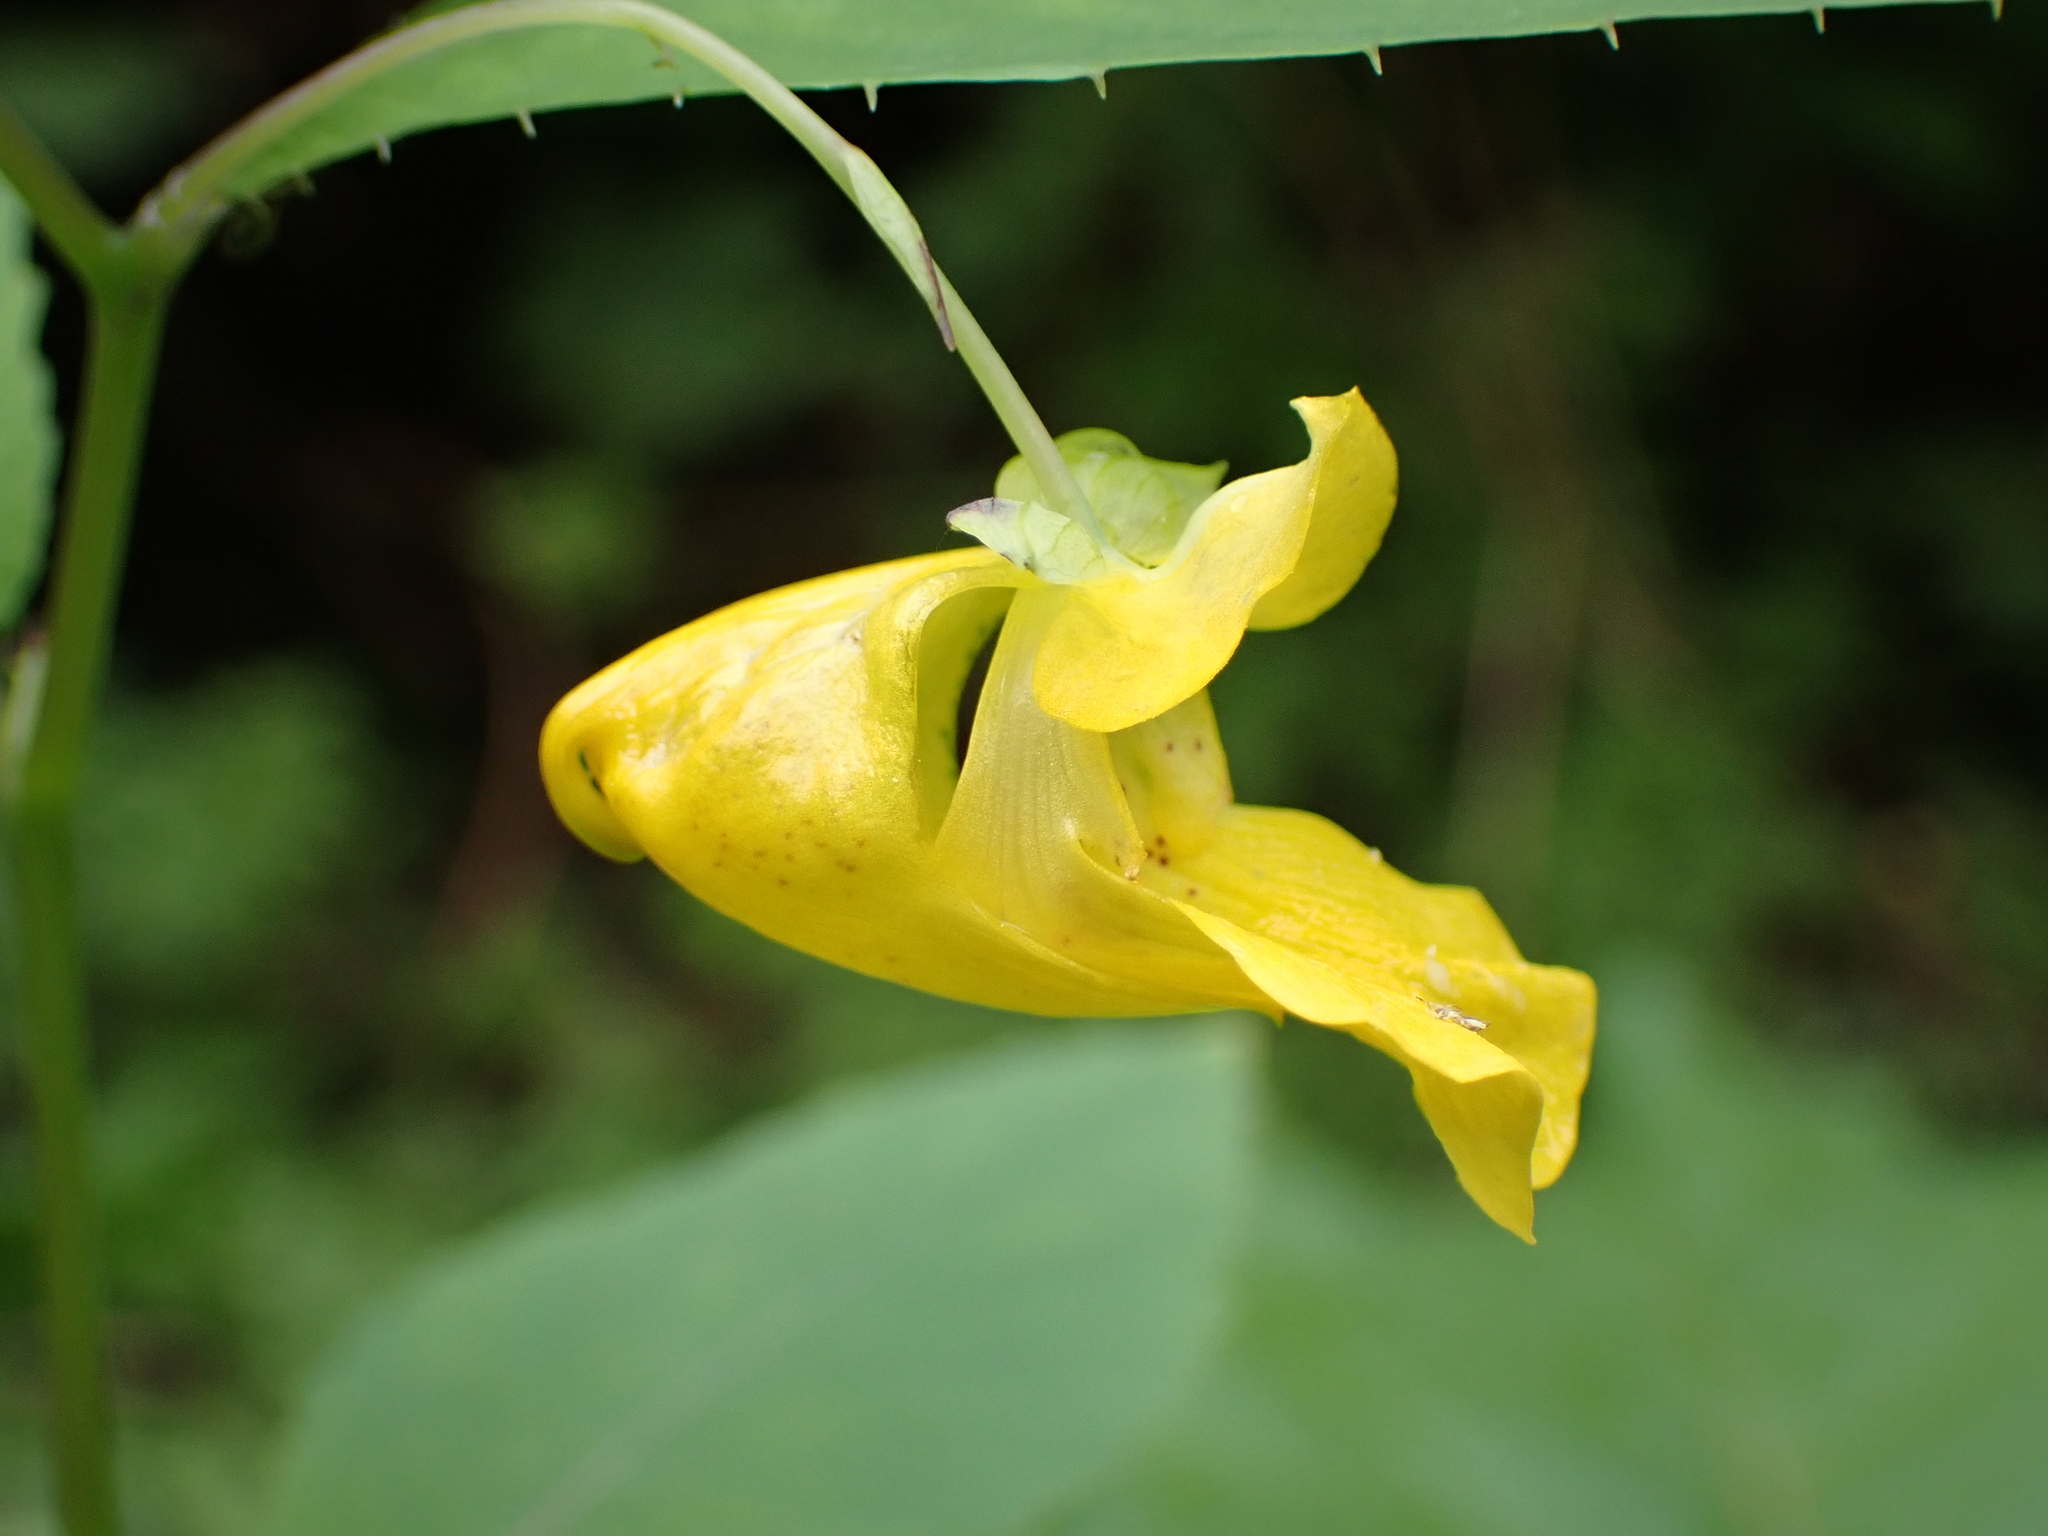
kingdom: Plantae
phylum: Tracheophyta
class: Magnoliopsida
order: Ericales
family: Balsaminaceae
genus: Impatiens
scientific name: Impatiens pallida
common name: Pale snapweed
